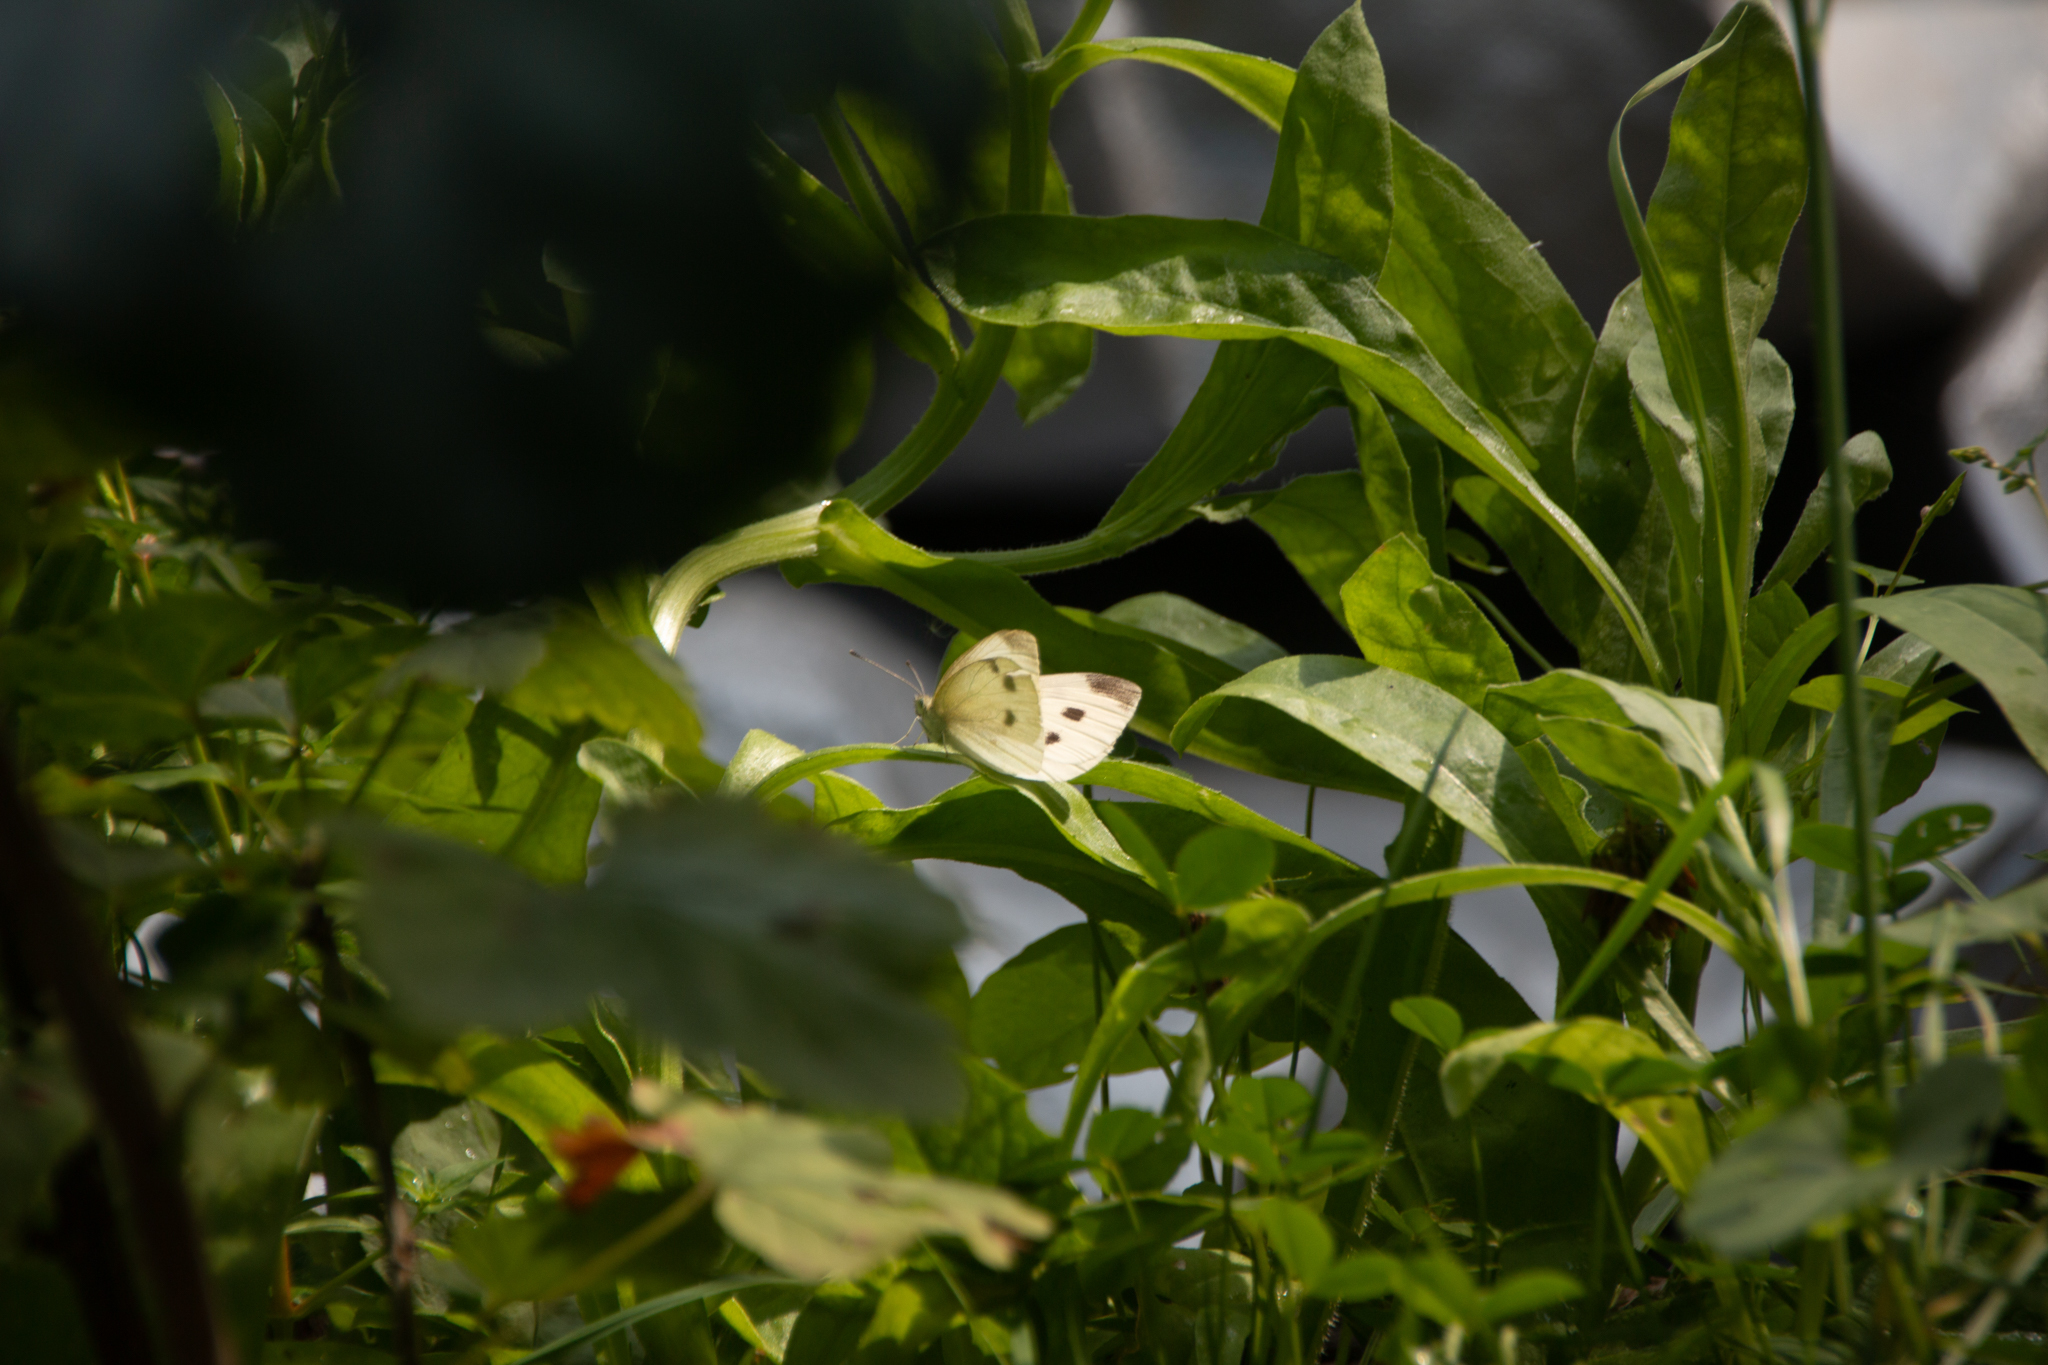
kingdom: Animalia
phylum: Arthropoda
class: Insecta
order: Lepidoptera
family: Pieridae
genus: Pieris
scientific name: Pieris rapae
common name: Small white
